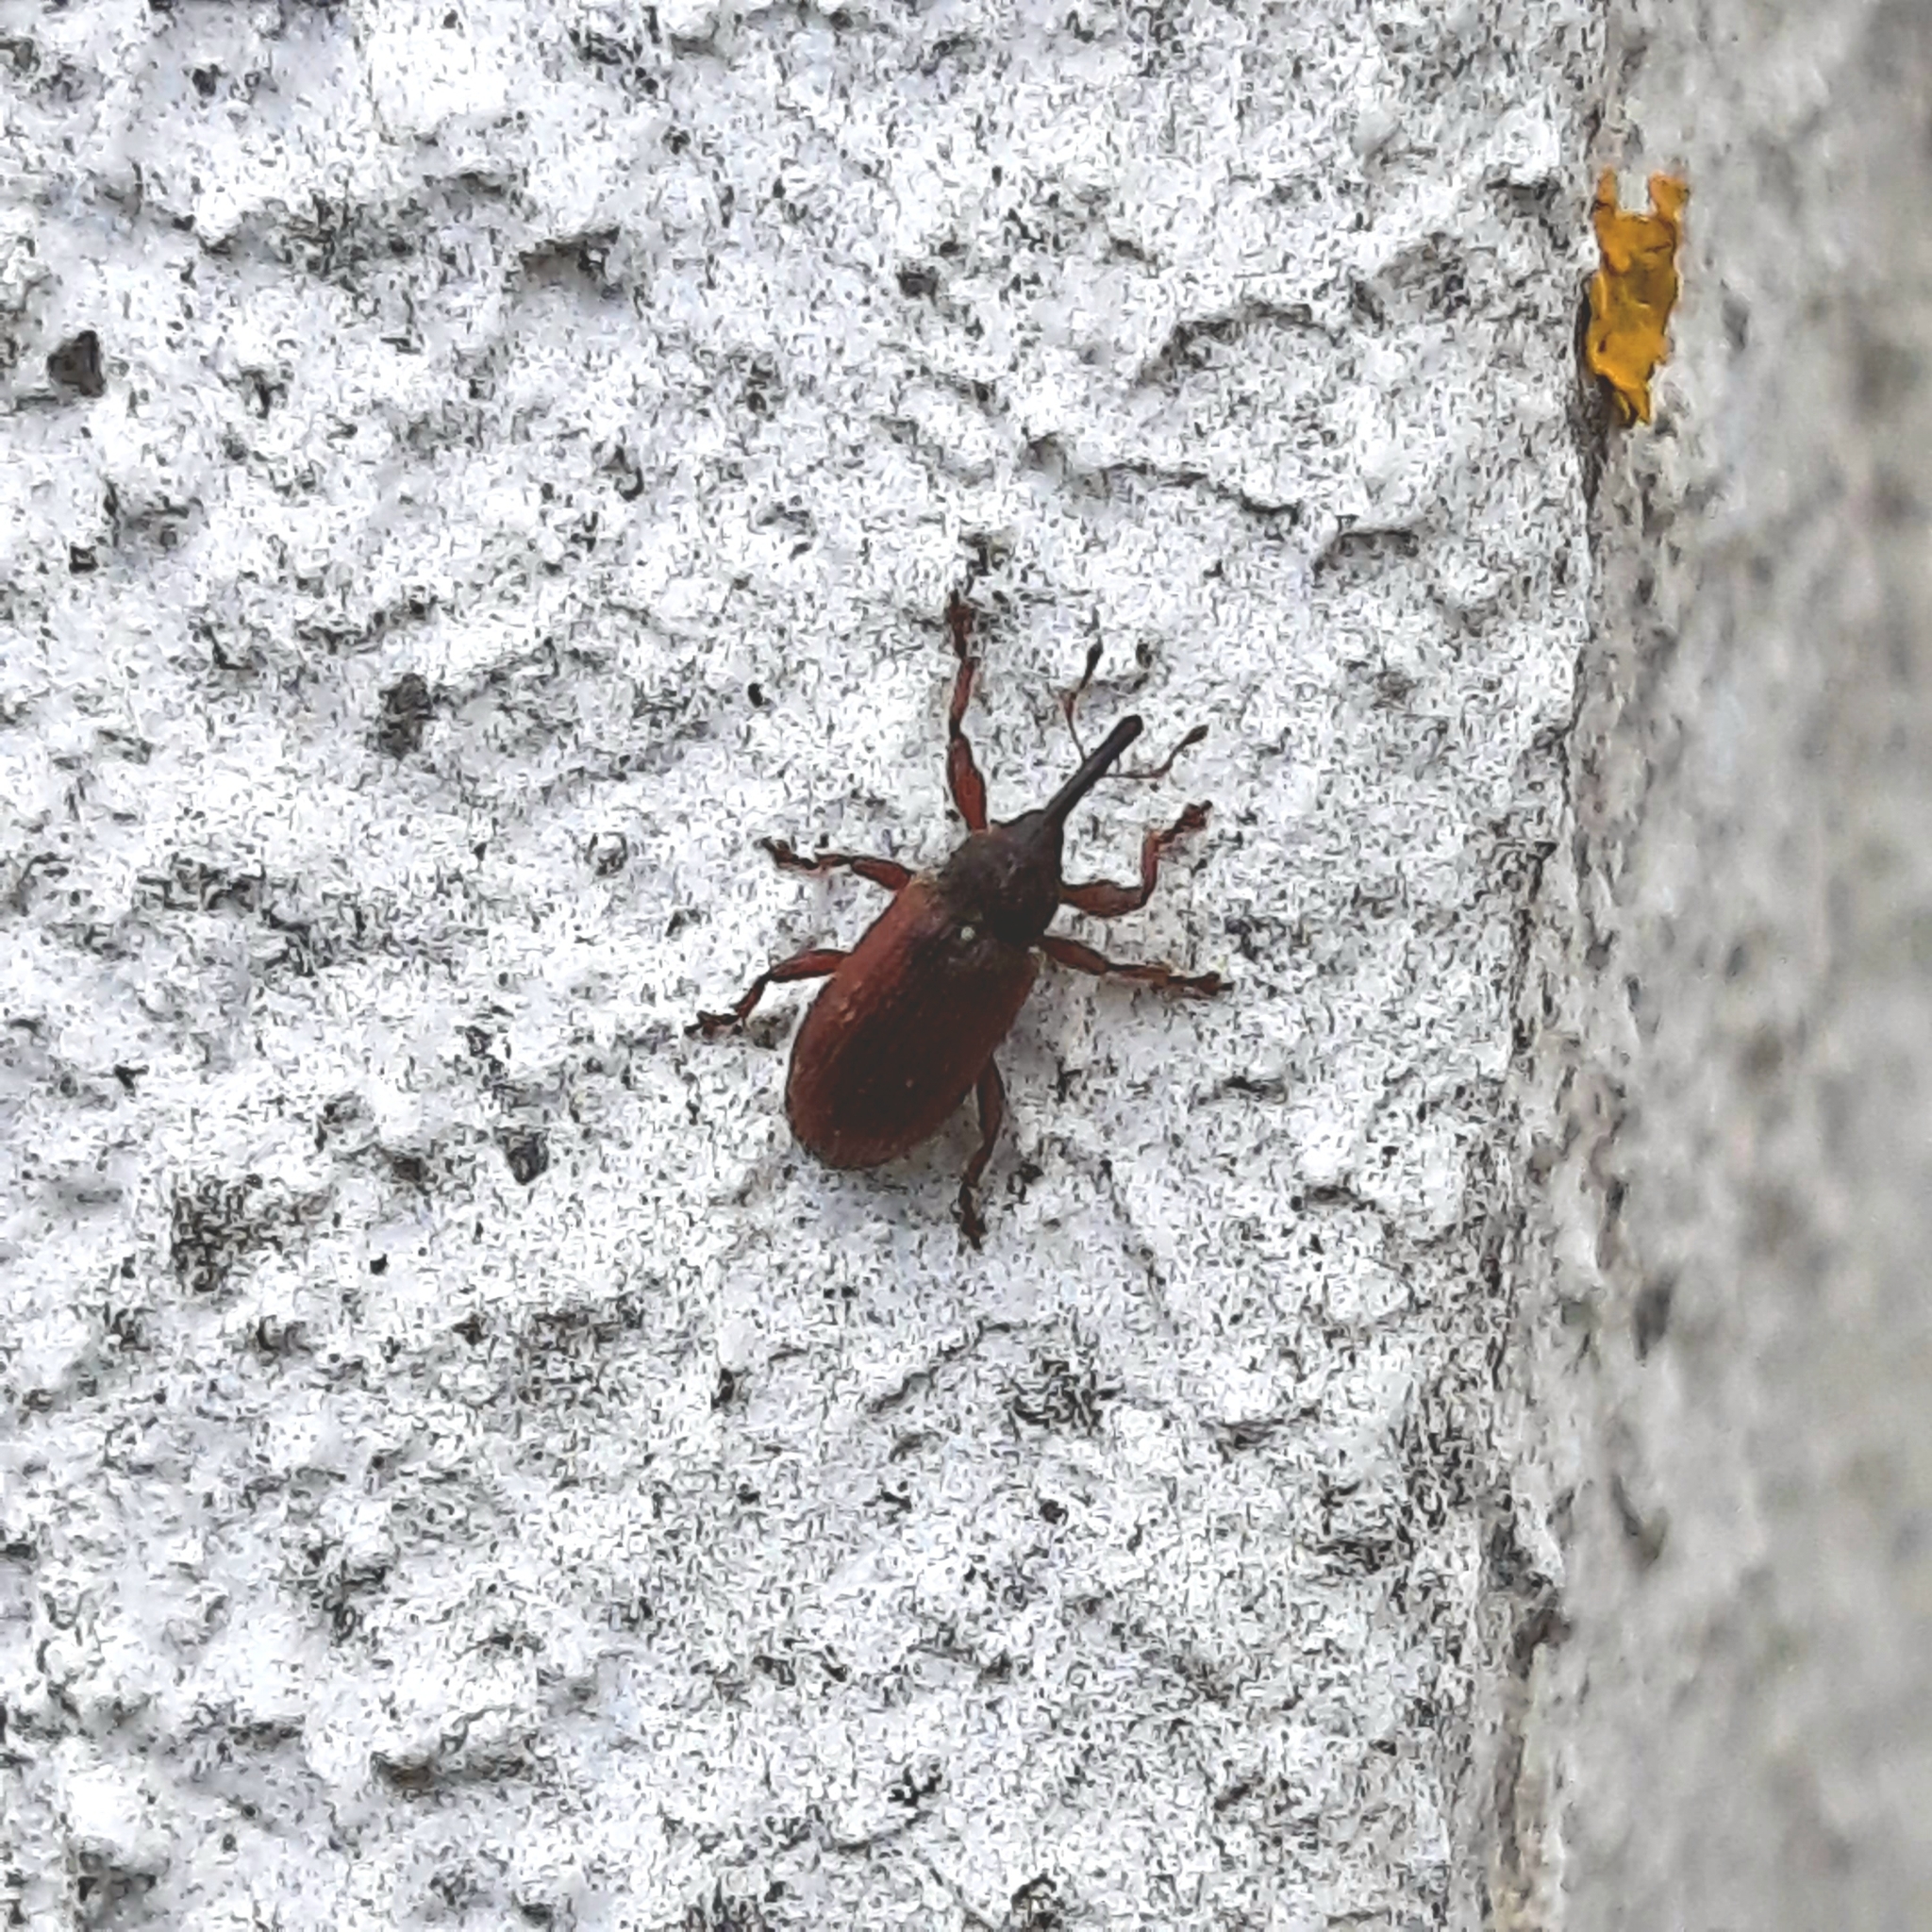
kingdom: Animalia
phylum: Arthropoda
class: Insecta
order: Coleoptera
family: Curculionidae
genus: Bradybatus
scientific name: Bradybatus kellneri
